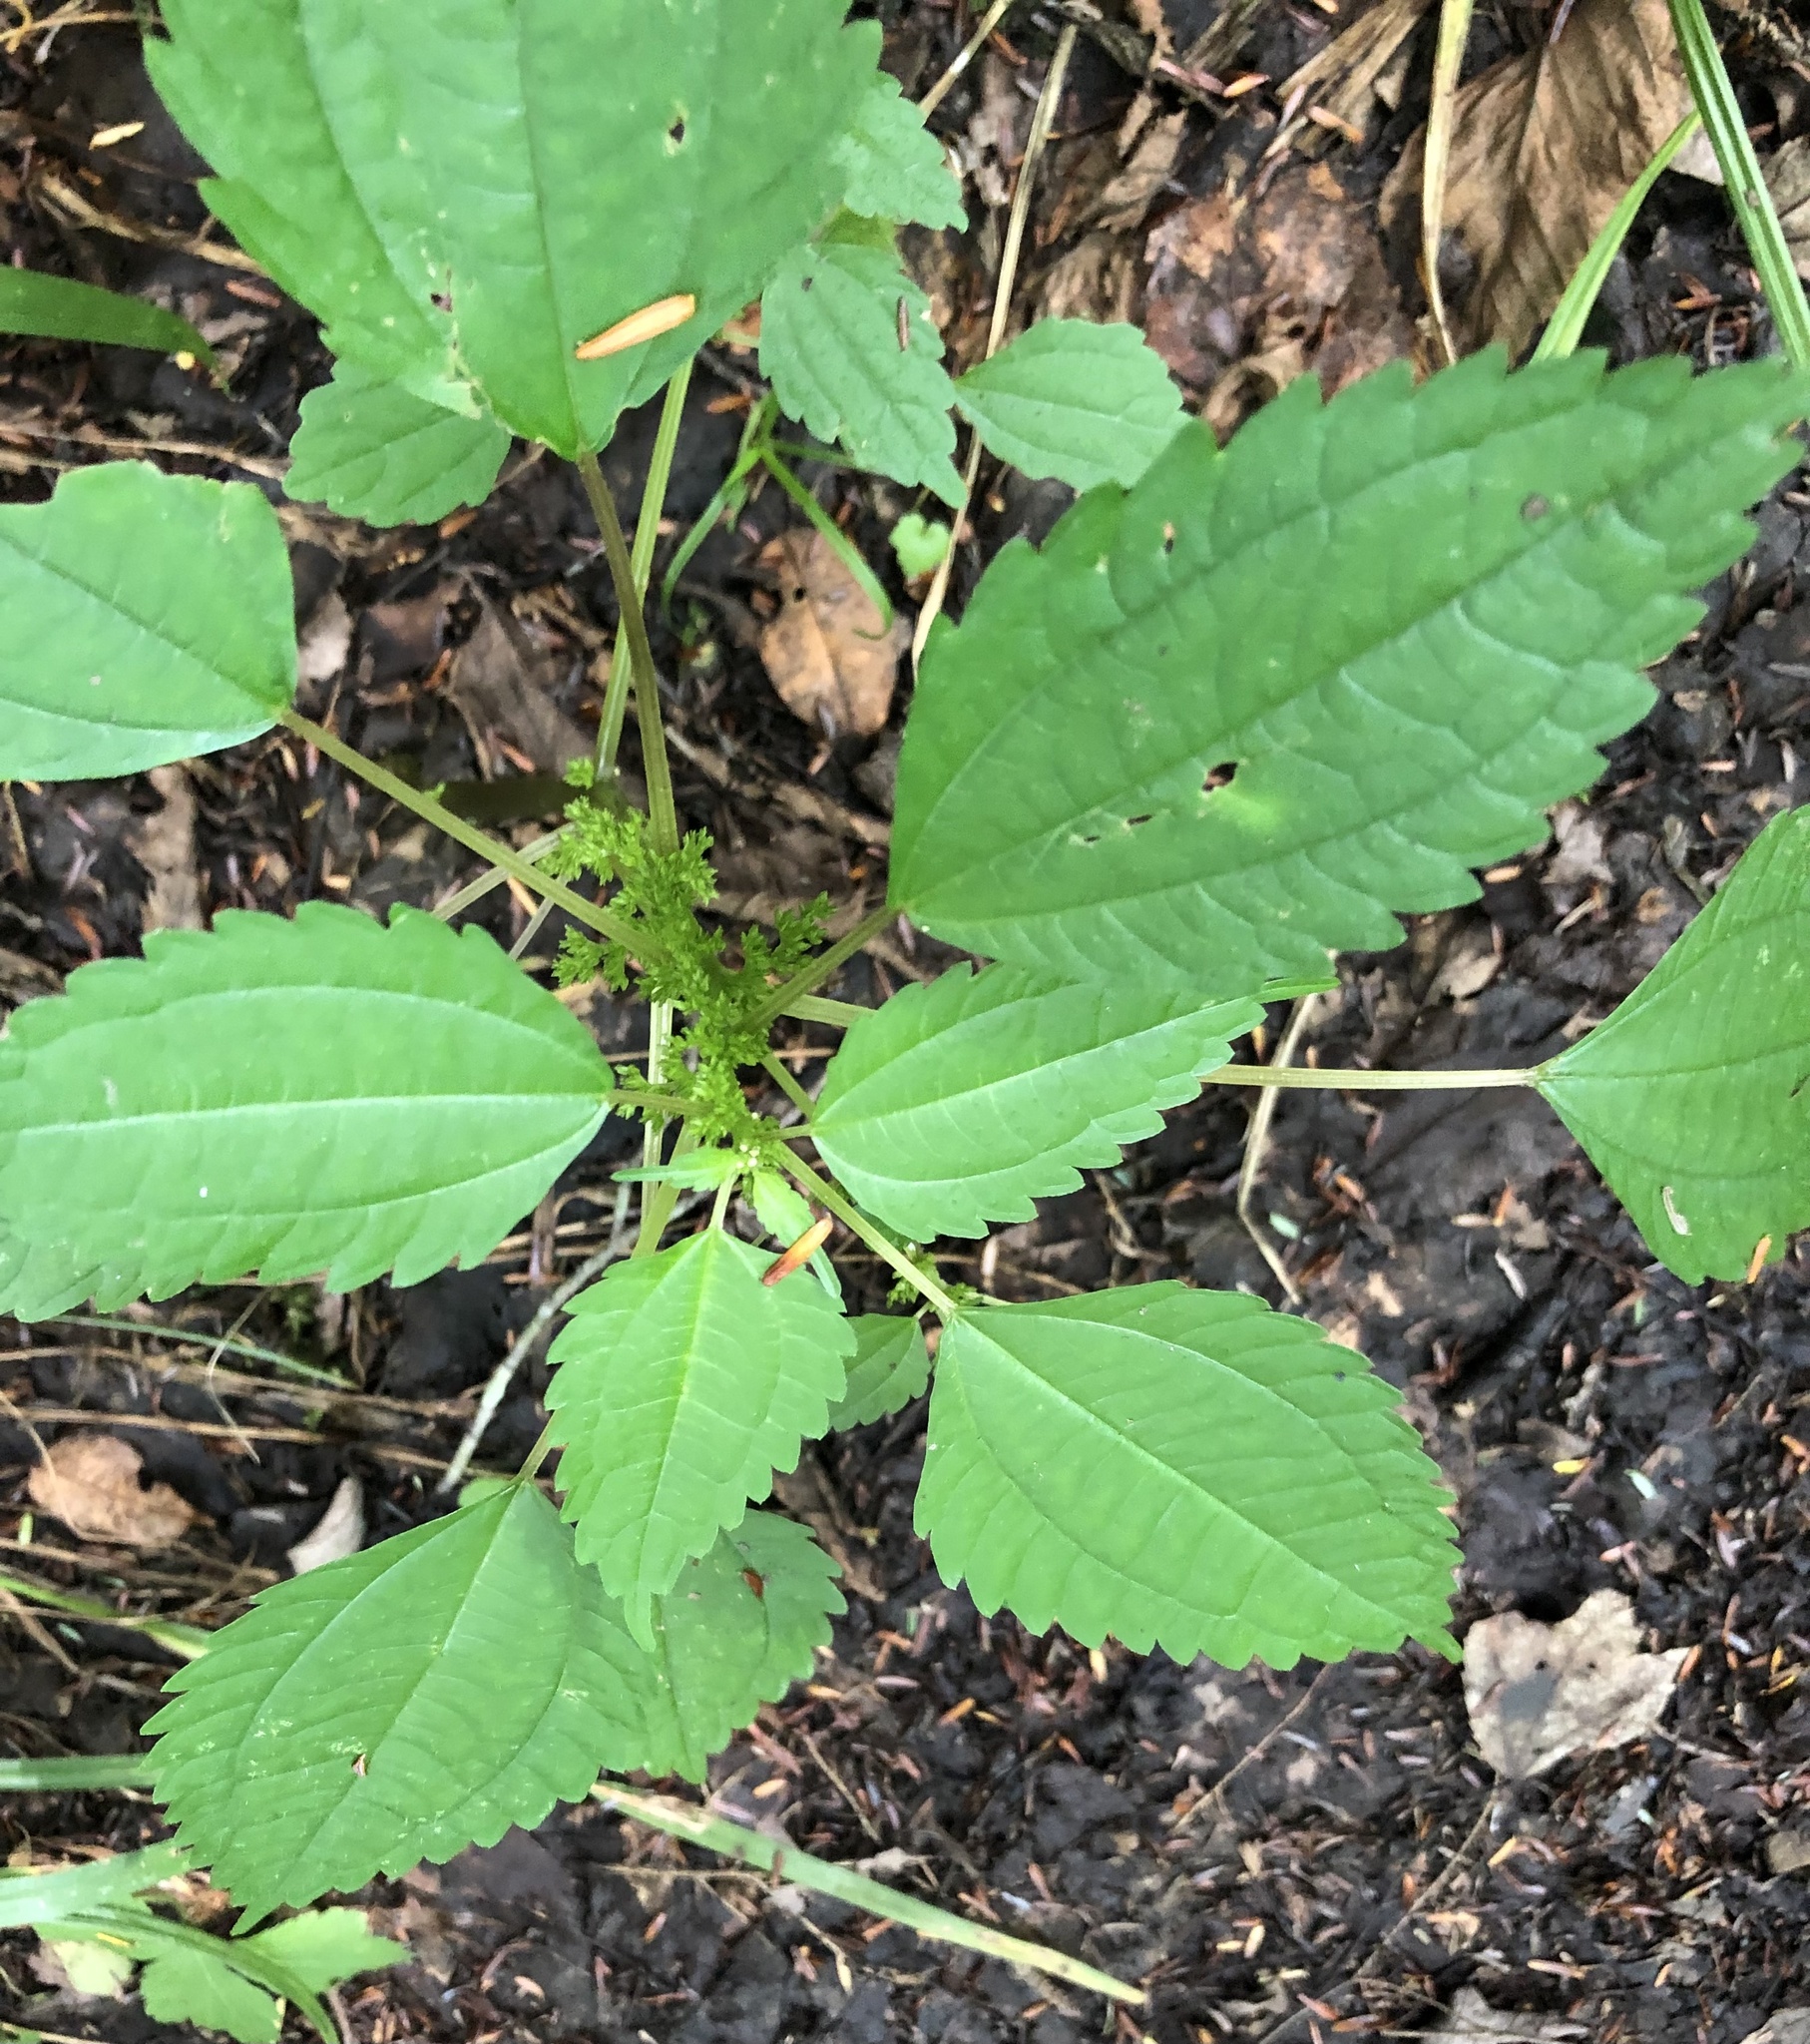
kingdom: Plantae
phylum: Tracheophyta
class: Magnoliopsida
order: Rosales
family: Urticaceae
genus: Pilea
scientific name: Pilea pumila
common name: Clearweed
